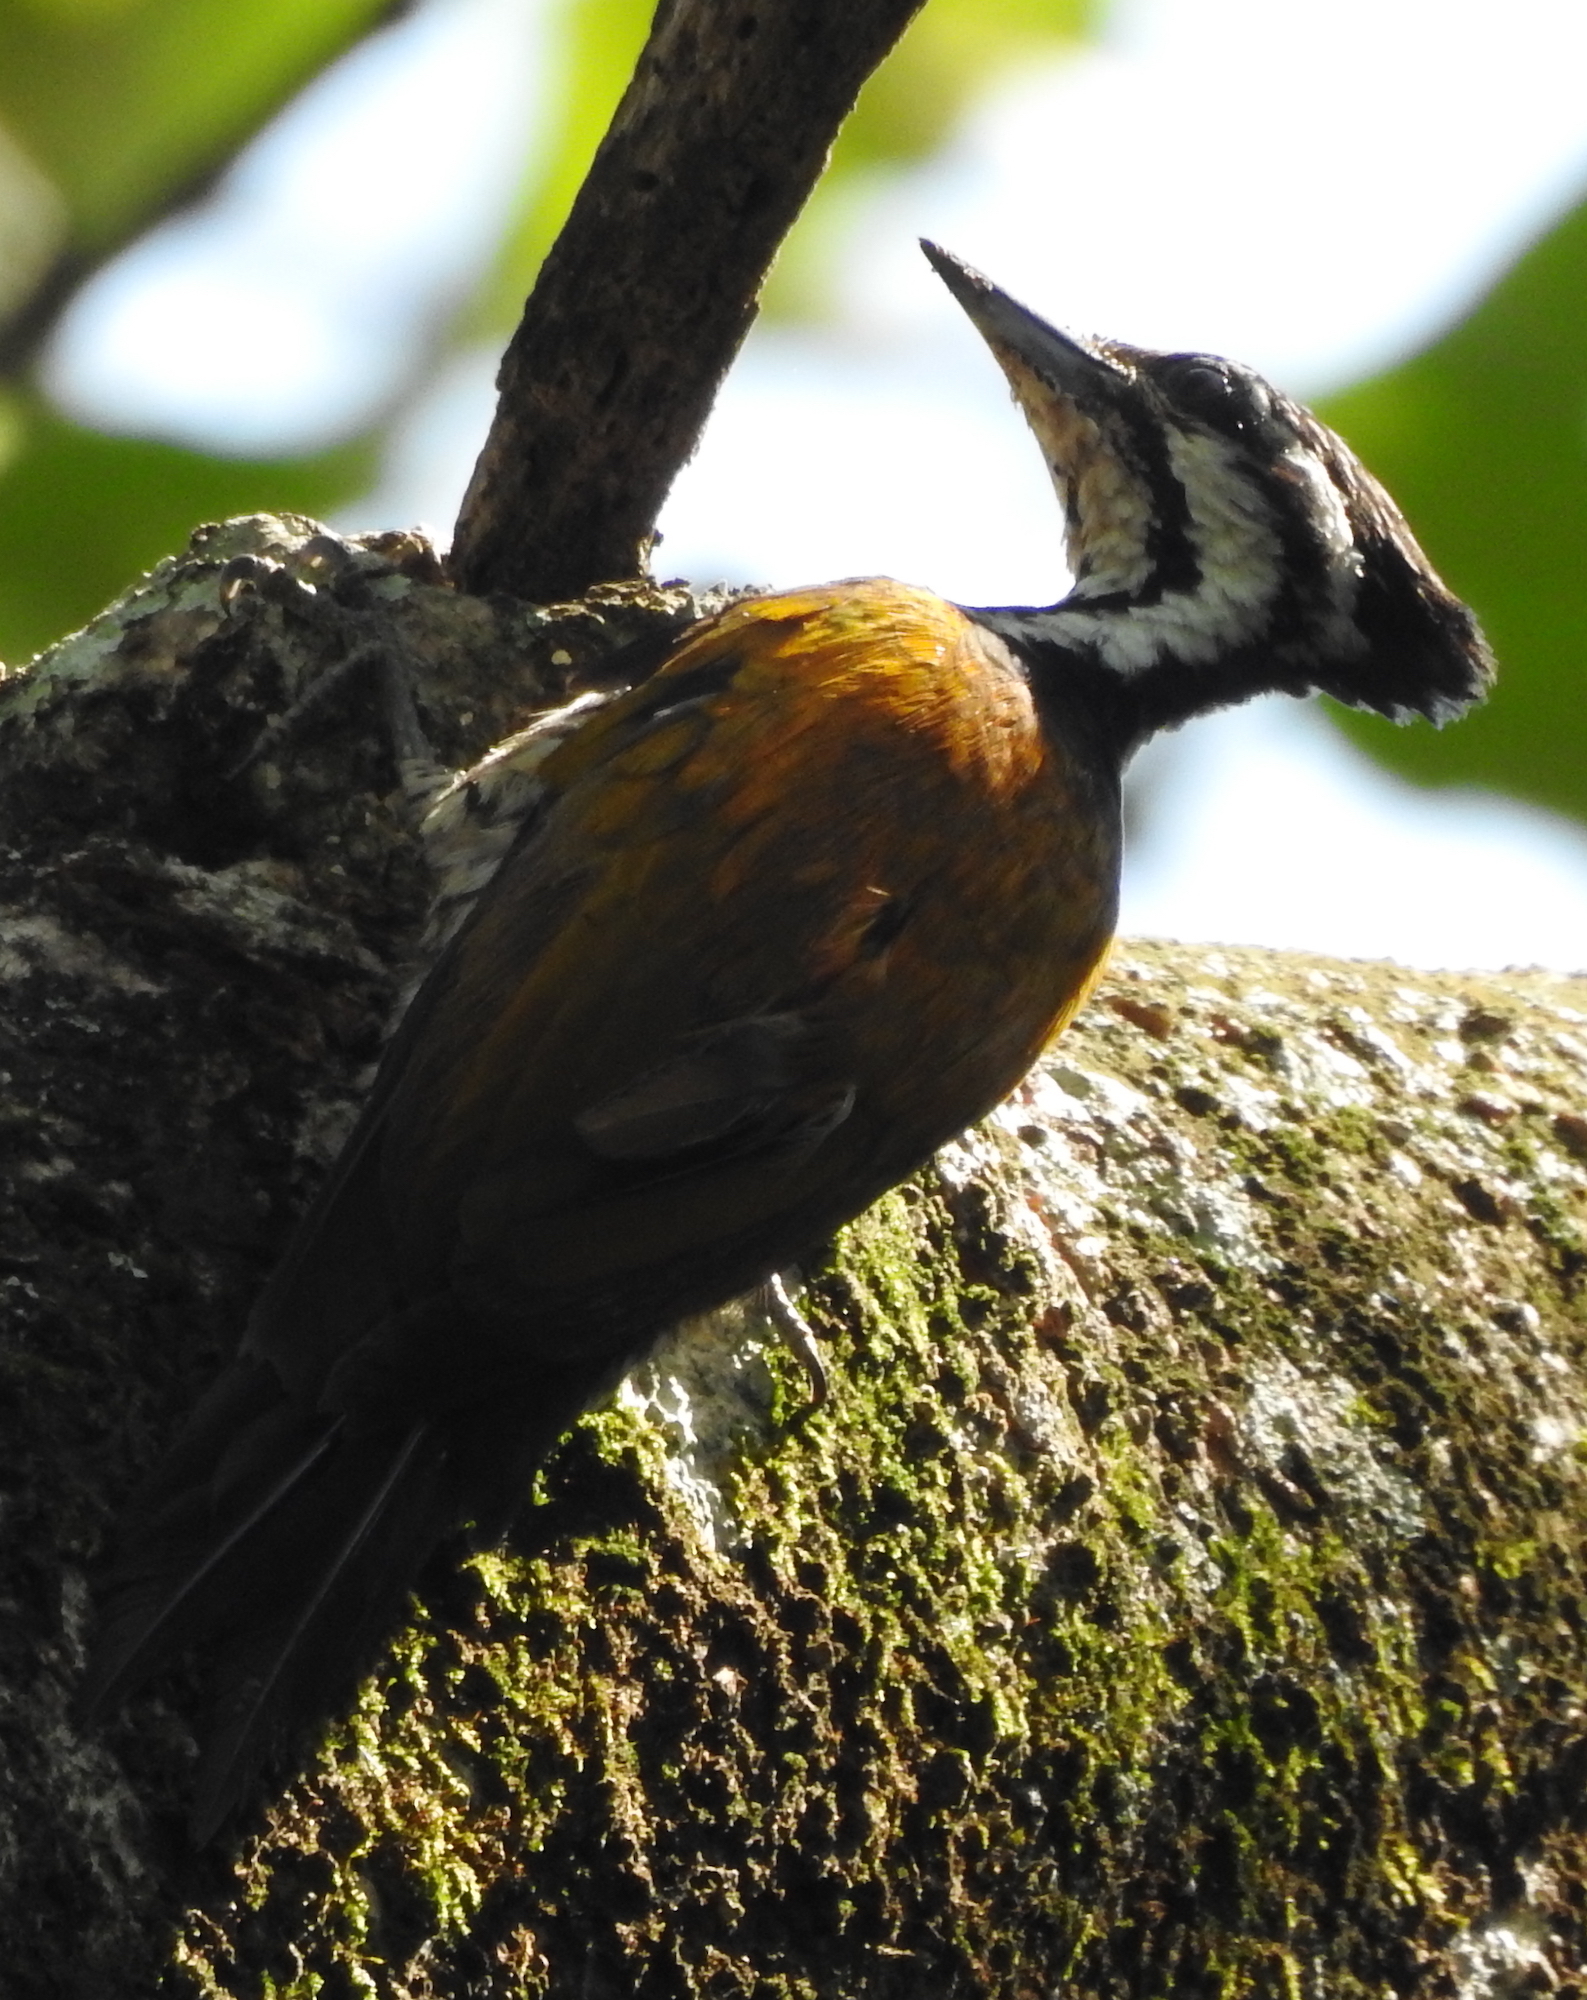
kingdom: Animalia
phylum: Chordata
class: Aves
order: Piciformes
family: Picidae
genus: Dinopium
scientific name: Dinopium javanense
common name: Common flameback
